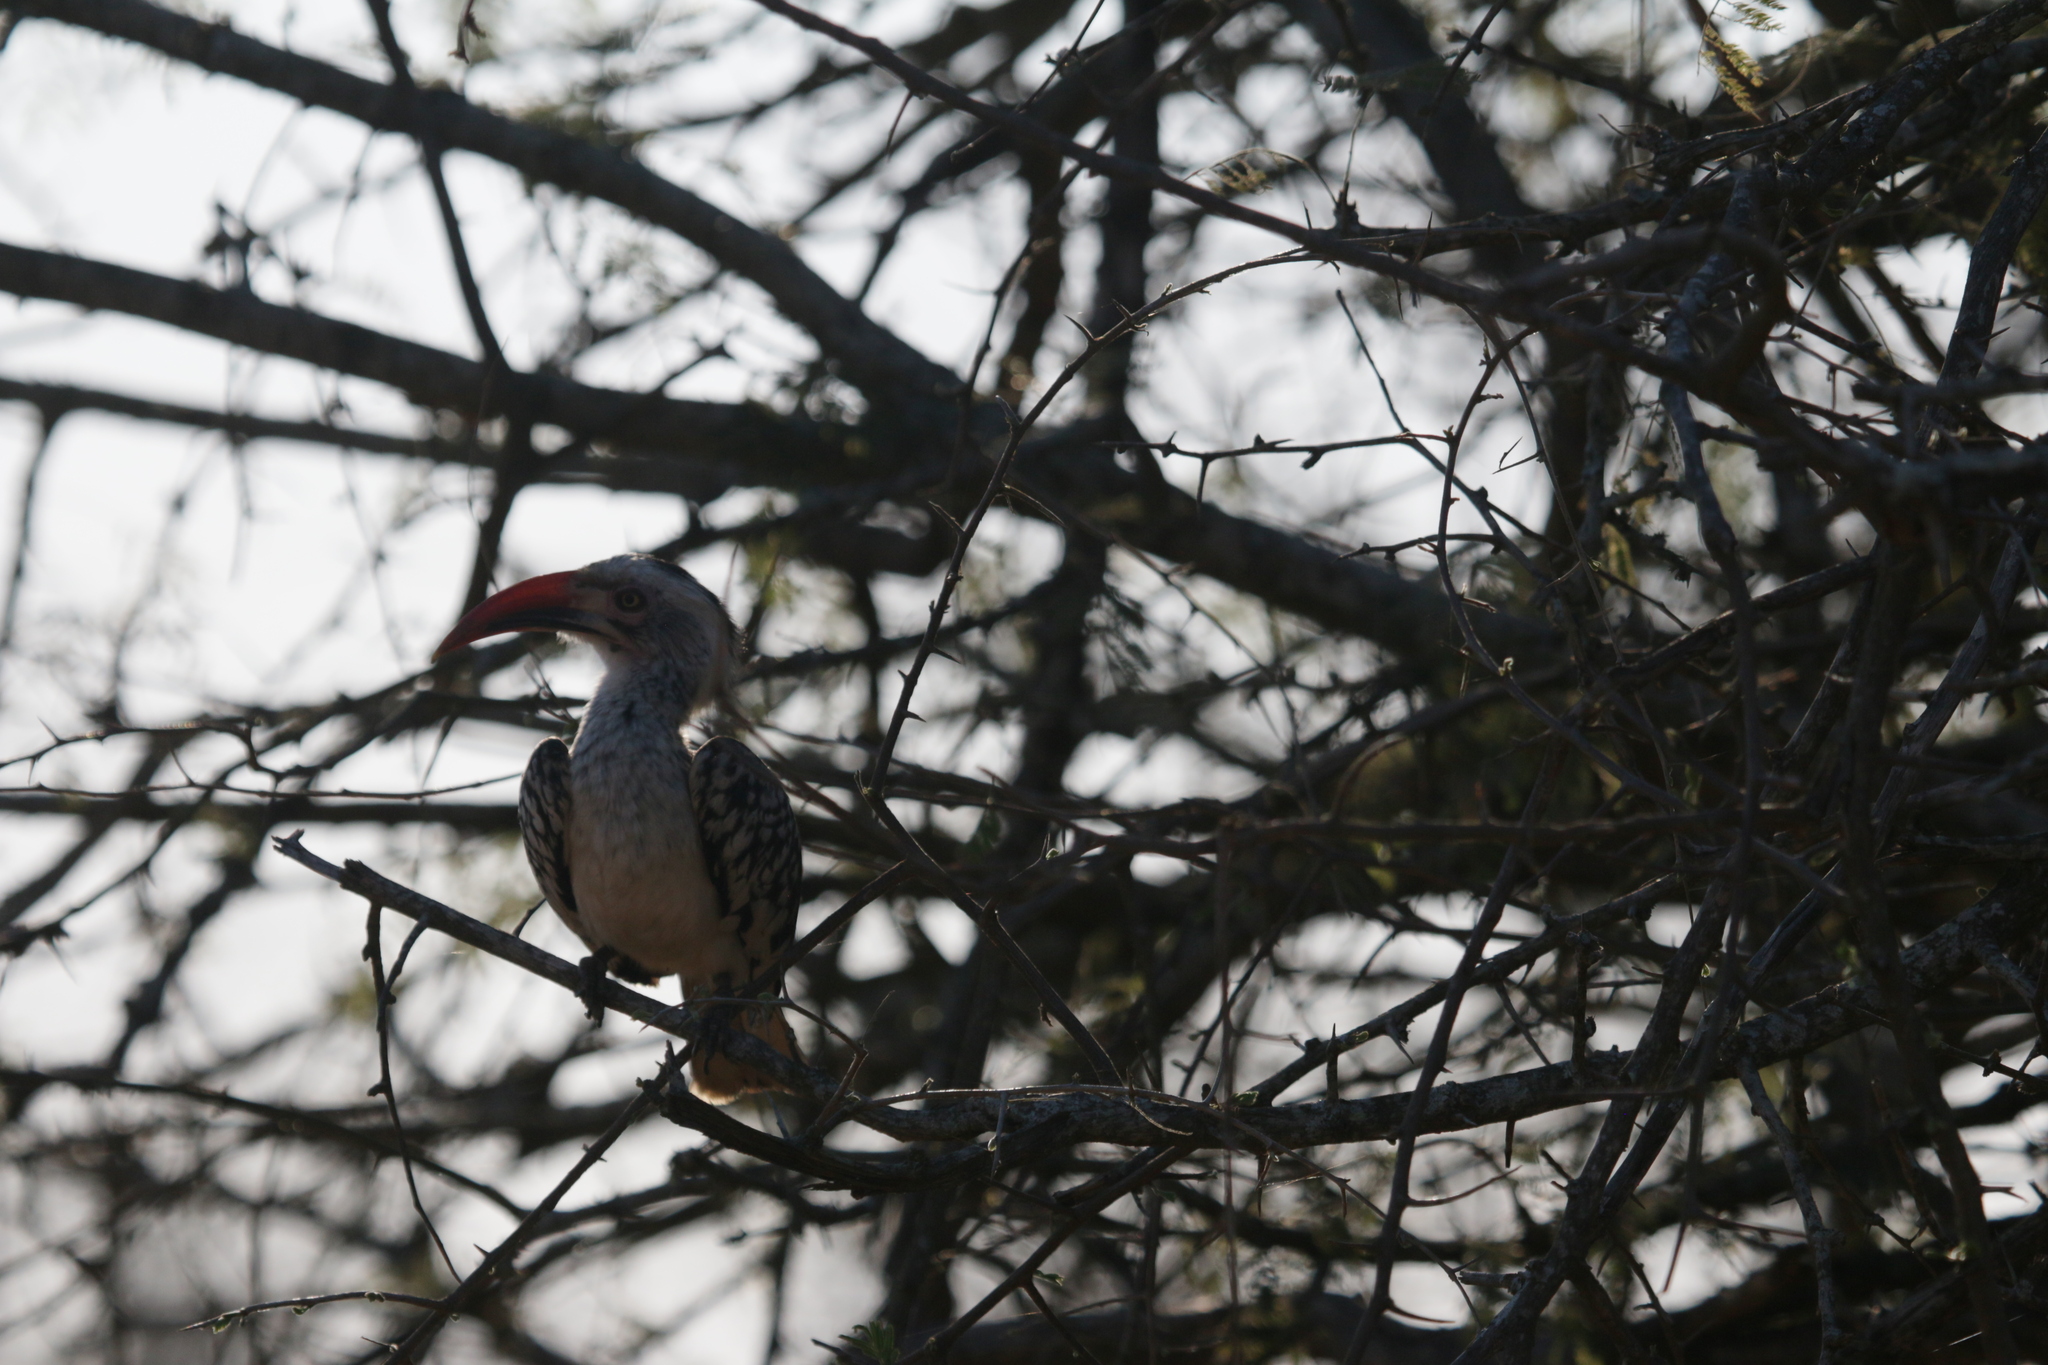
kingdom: Animalia
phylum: Chordata
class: Aves
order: Bucerotiformes
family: Bucerotidae
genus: Tockus
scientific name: Tockus rufirostris
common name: Southern red-billed hornbill
